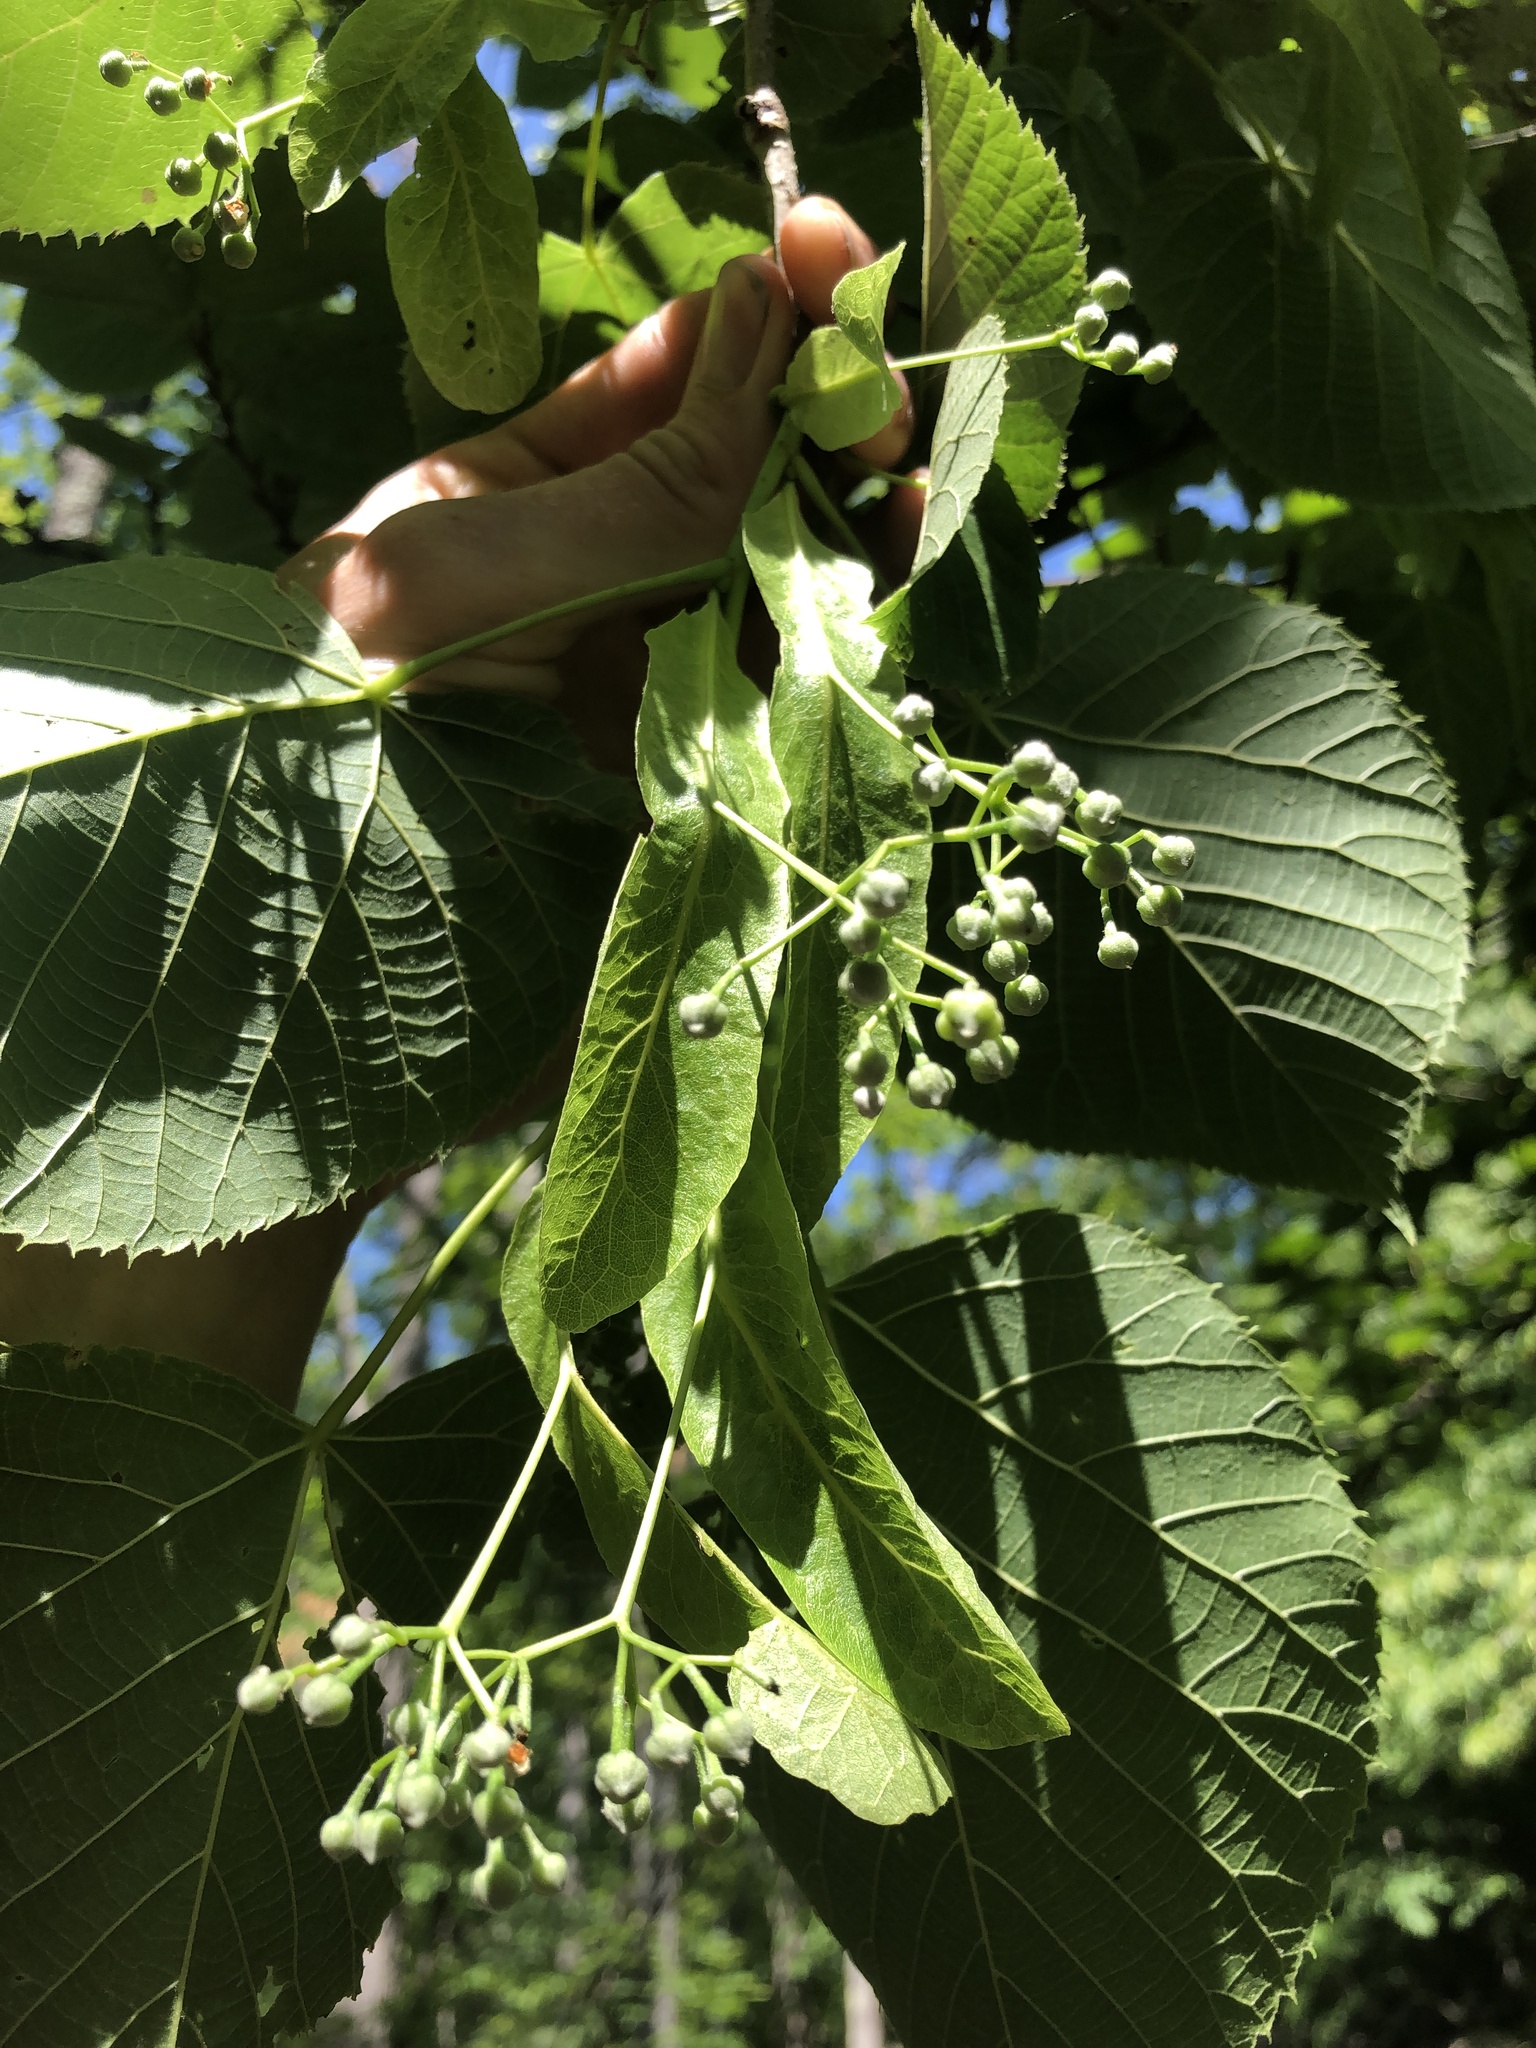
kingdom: Plantae
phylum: Tracheophyta
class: Magnoliopsida
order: Malvales
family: Malvaceae
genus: Tilia
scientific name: Tilia americana
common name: Basswood
